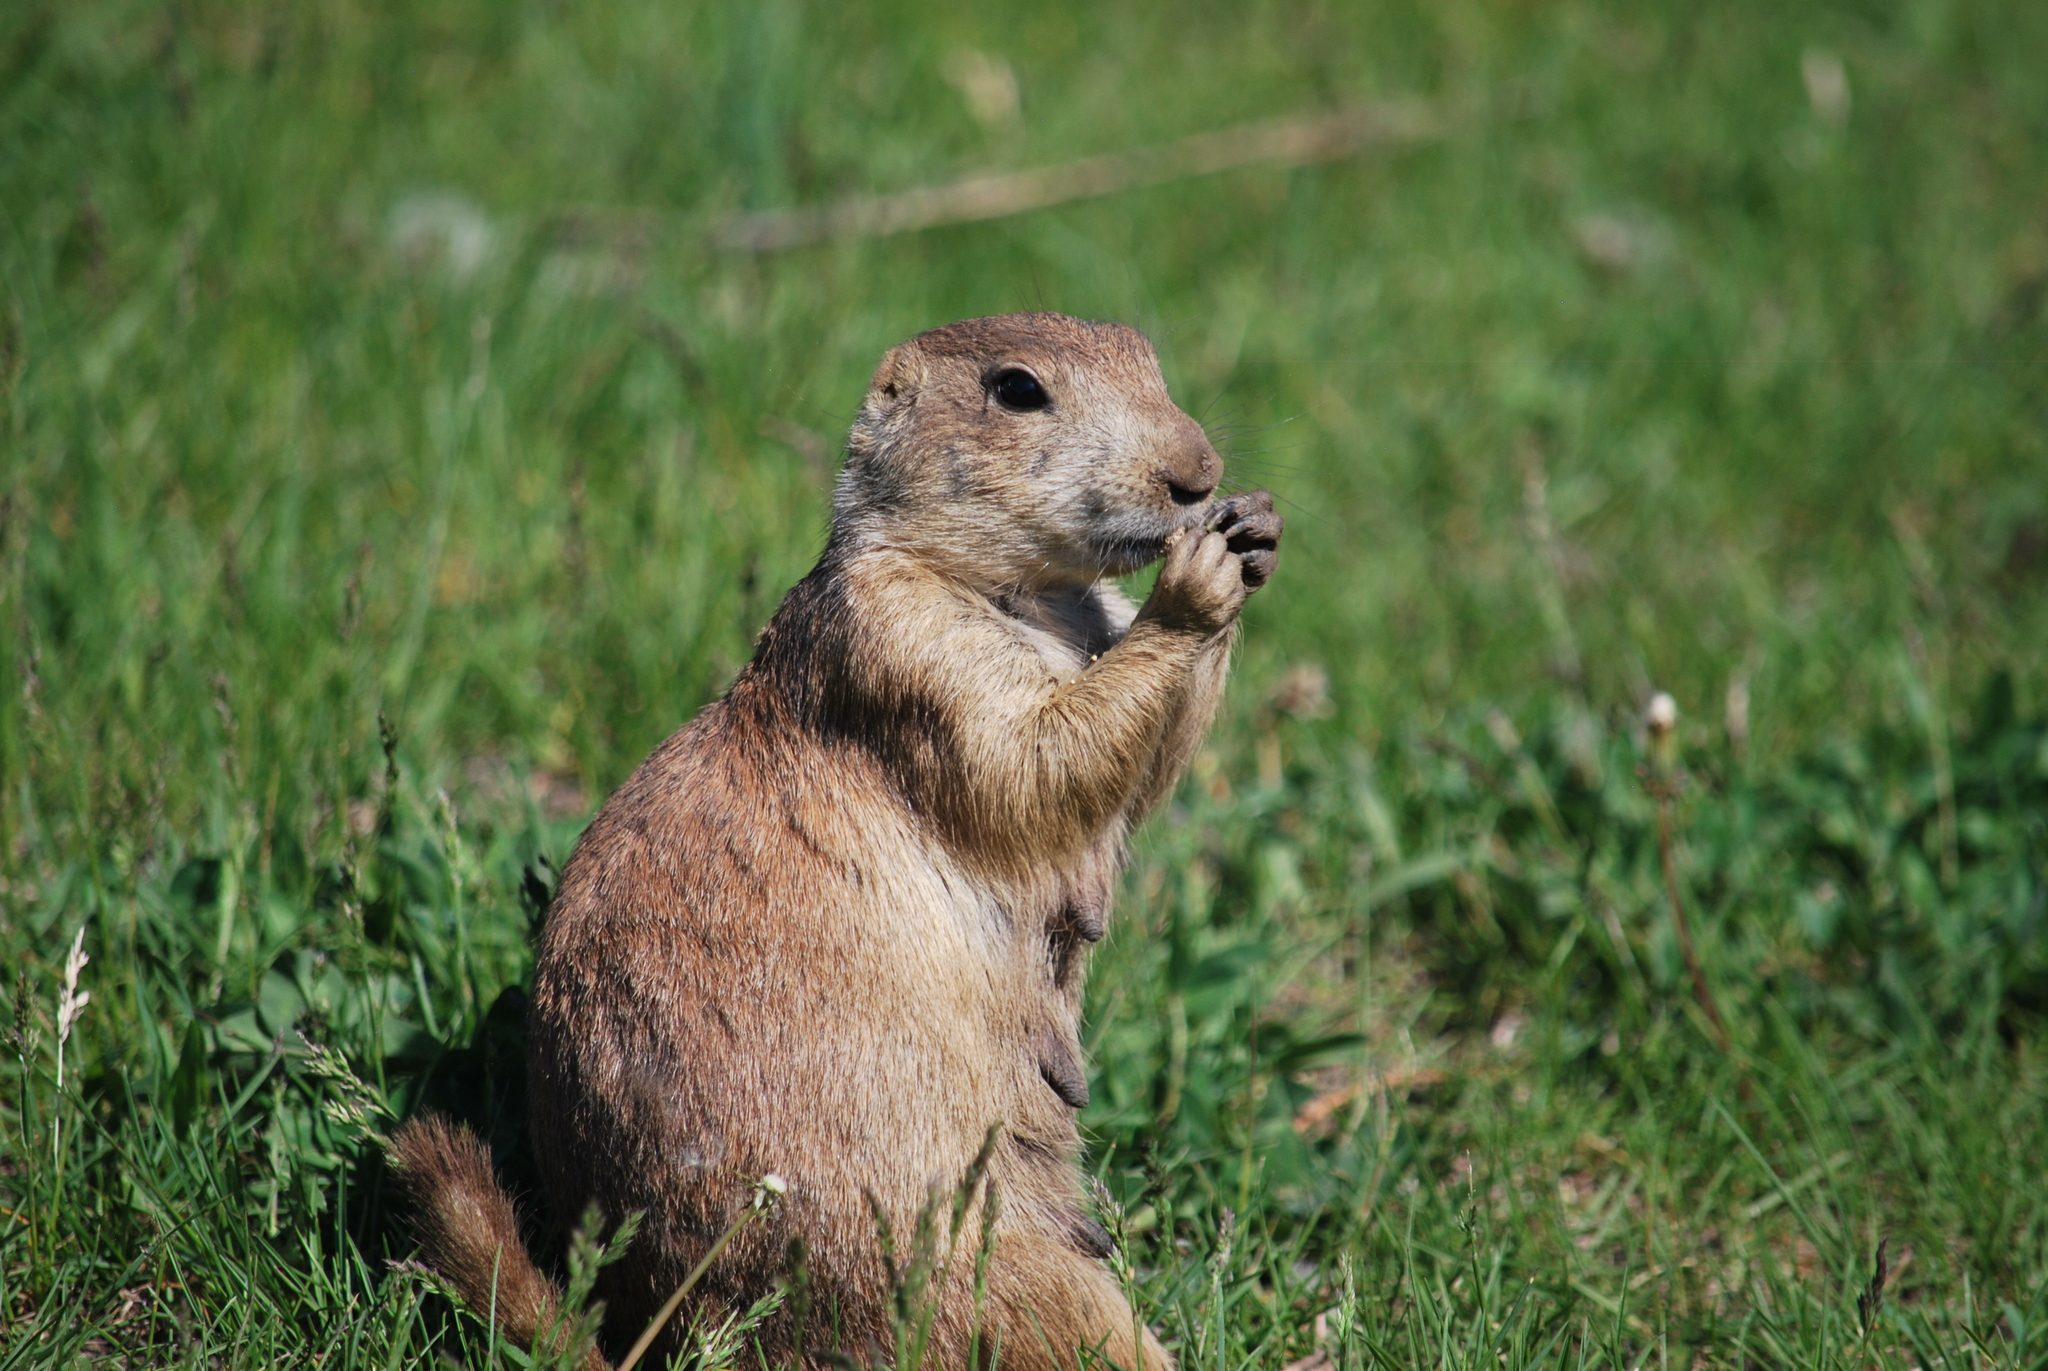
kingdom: Animalia
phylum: Chordata
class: Mammalia
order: Rodentia
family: Sciuridae
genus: Cynomys
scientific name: Cynomys ludovicianus
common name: Black-tailed prairie dog
